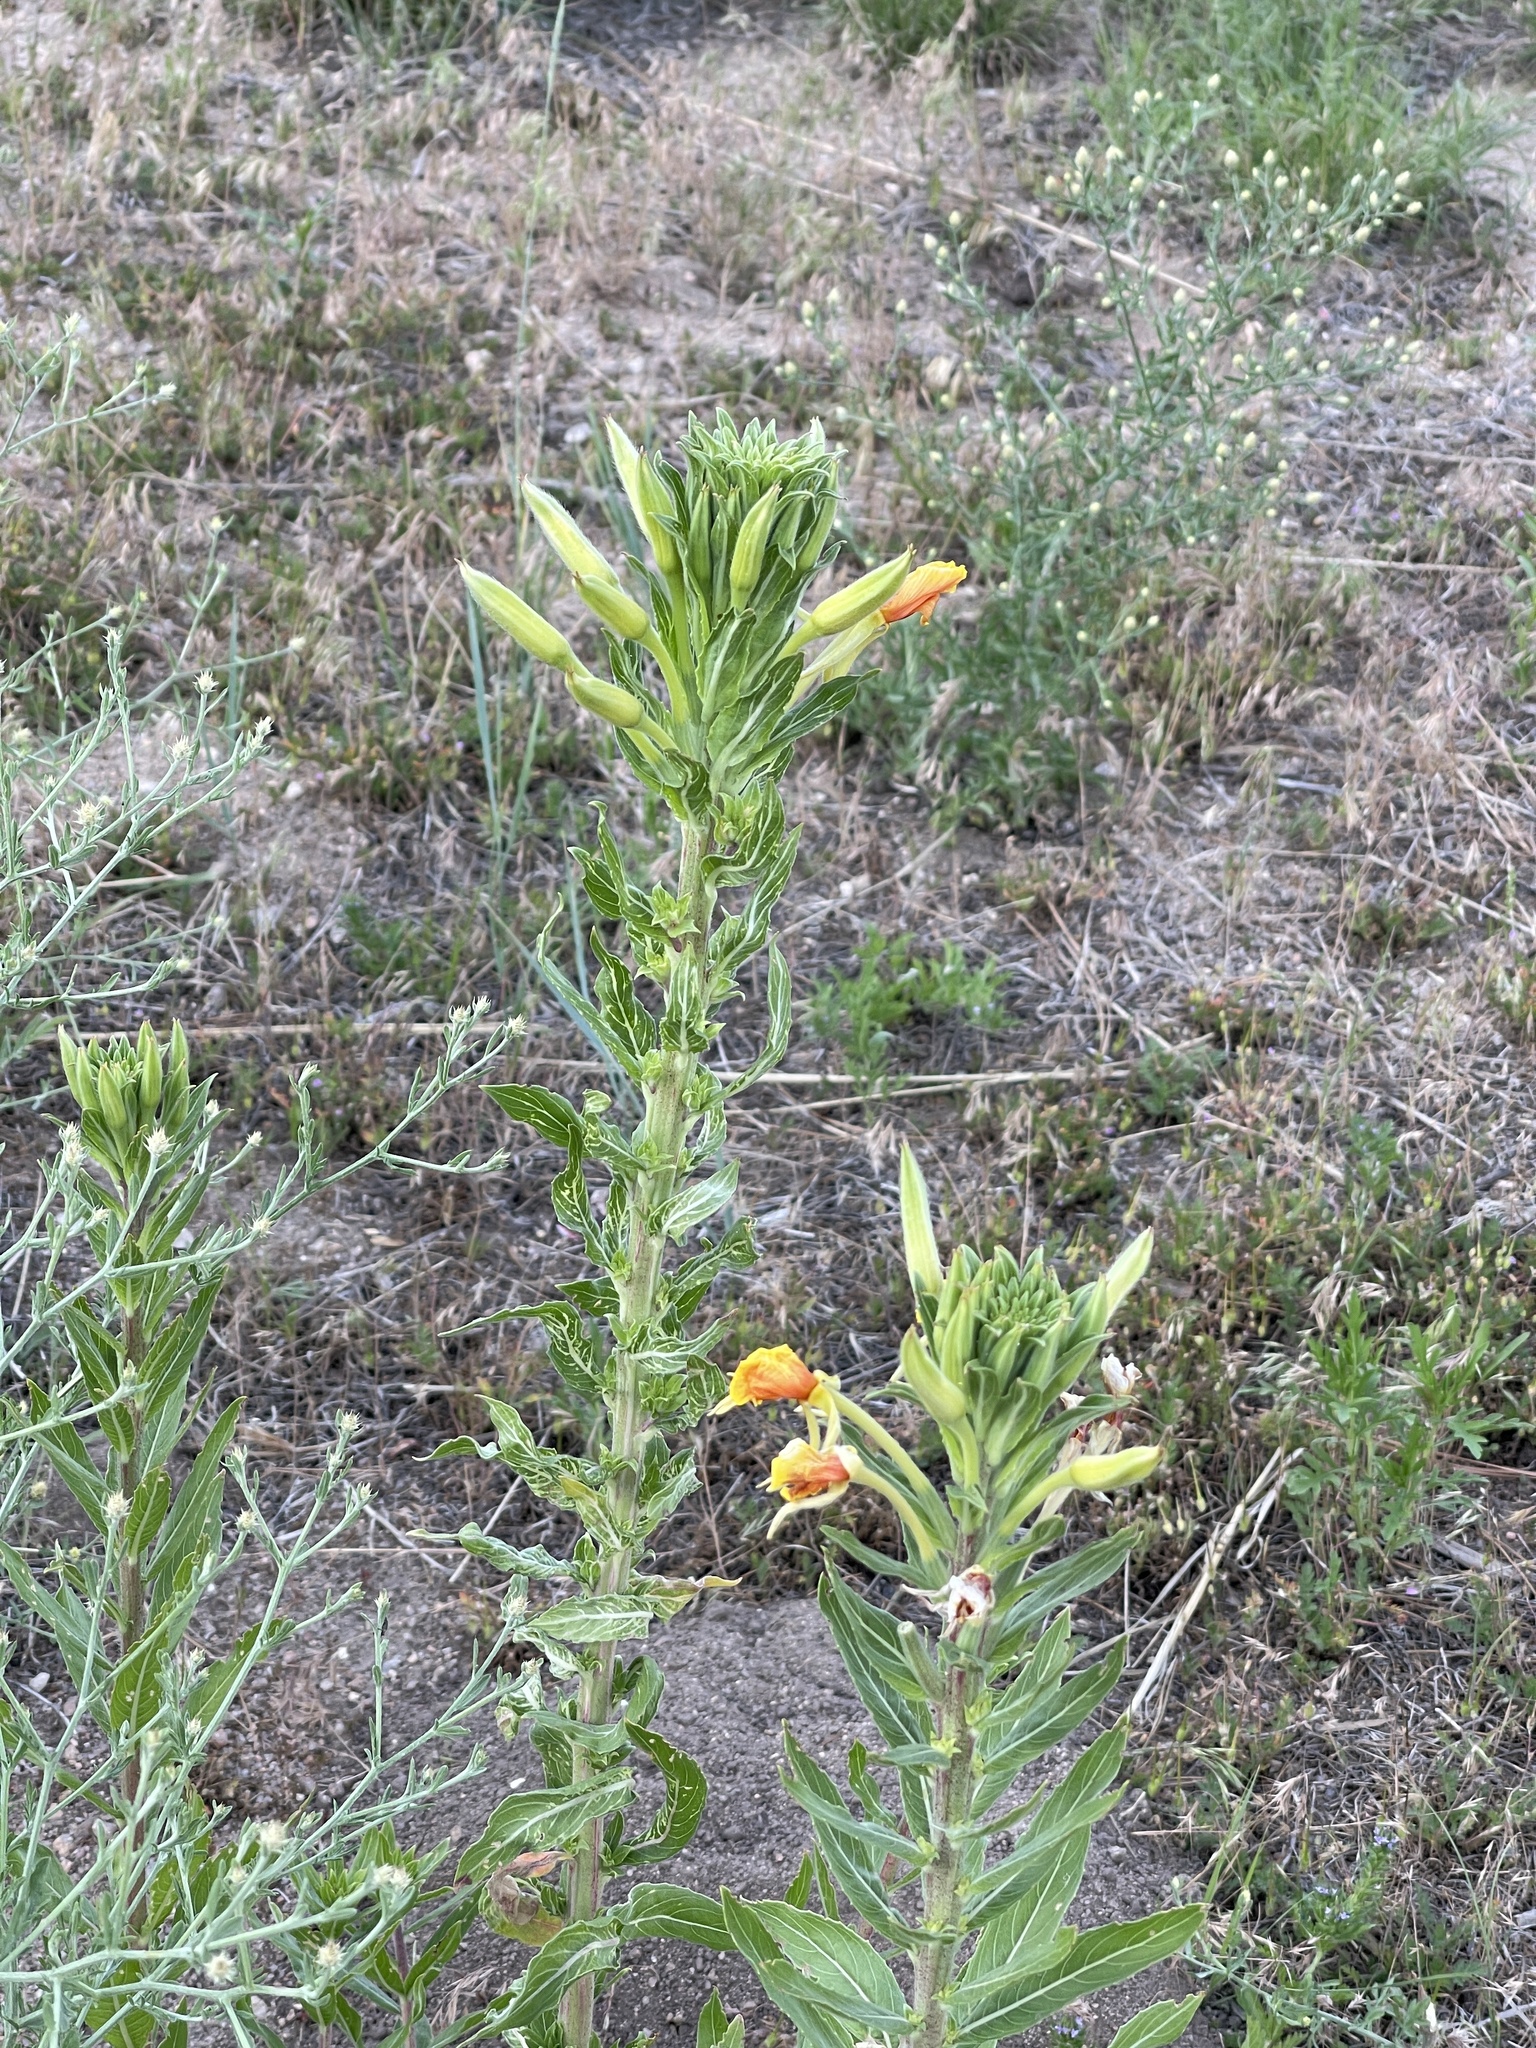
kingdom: Plantae
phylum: Tracheophyta
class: Magnoliopsida
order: Myrtales
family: Onagraceae
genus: Oenothera
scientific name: Oenothera villosa
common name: Hairy evening-primrose
